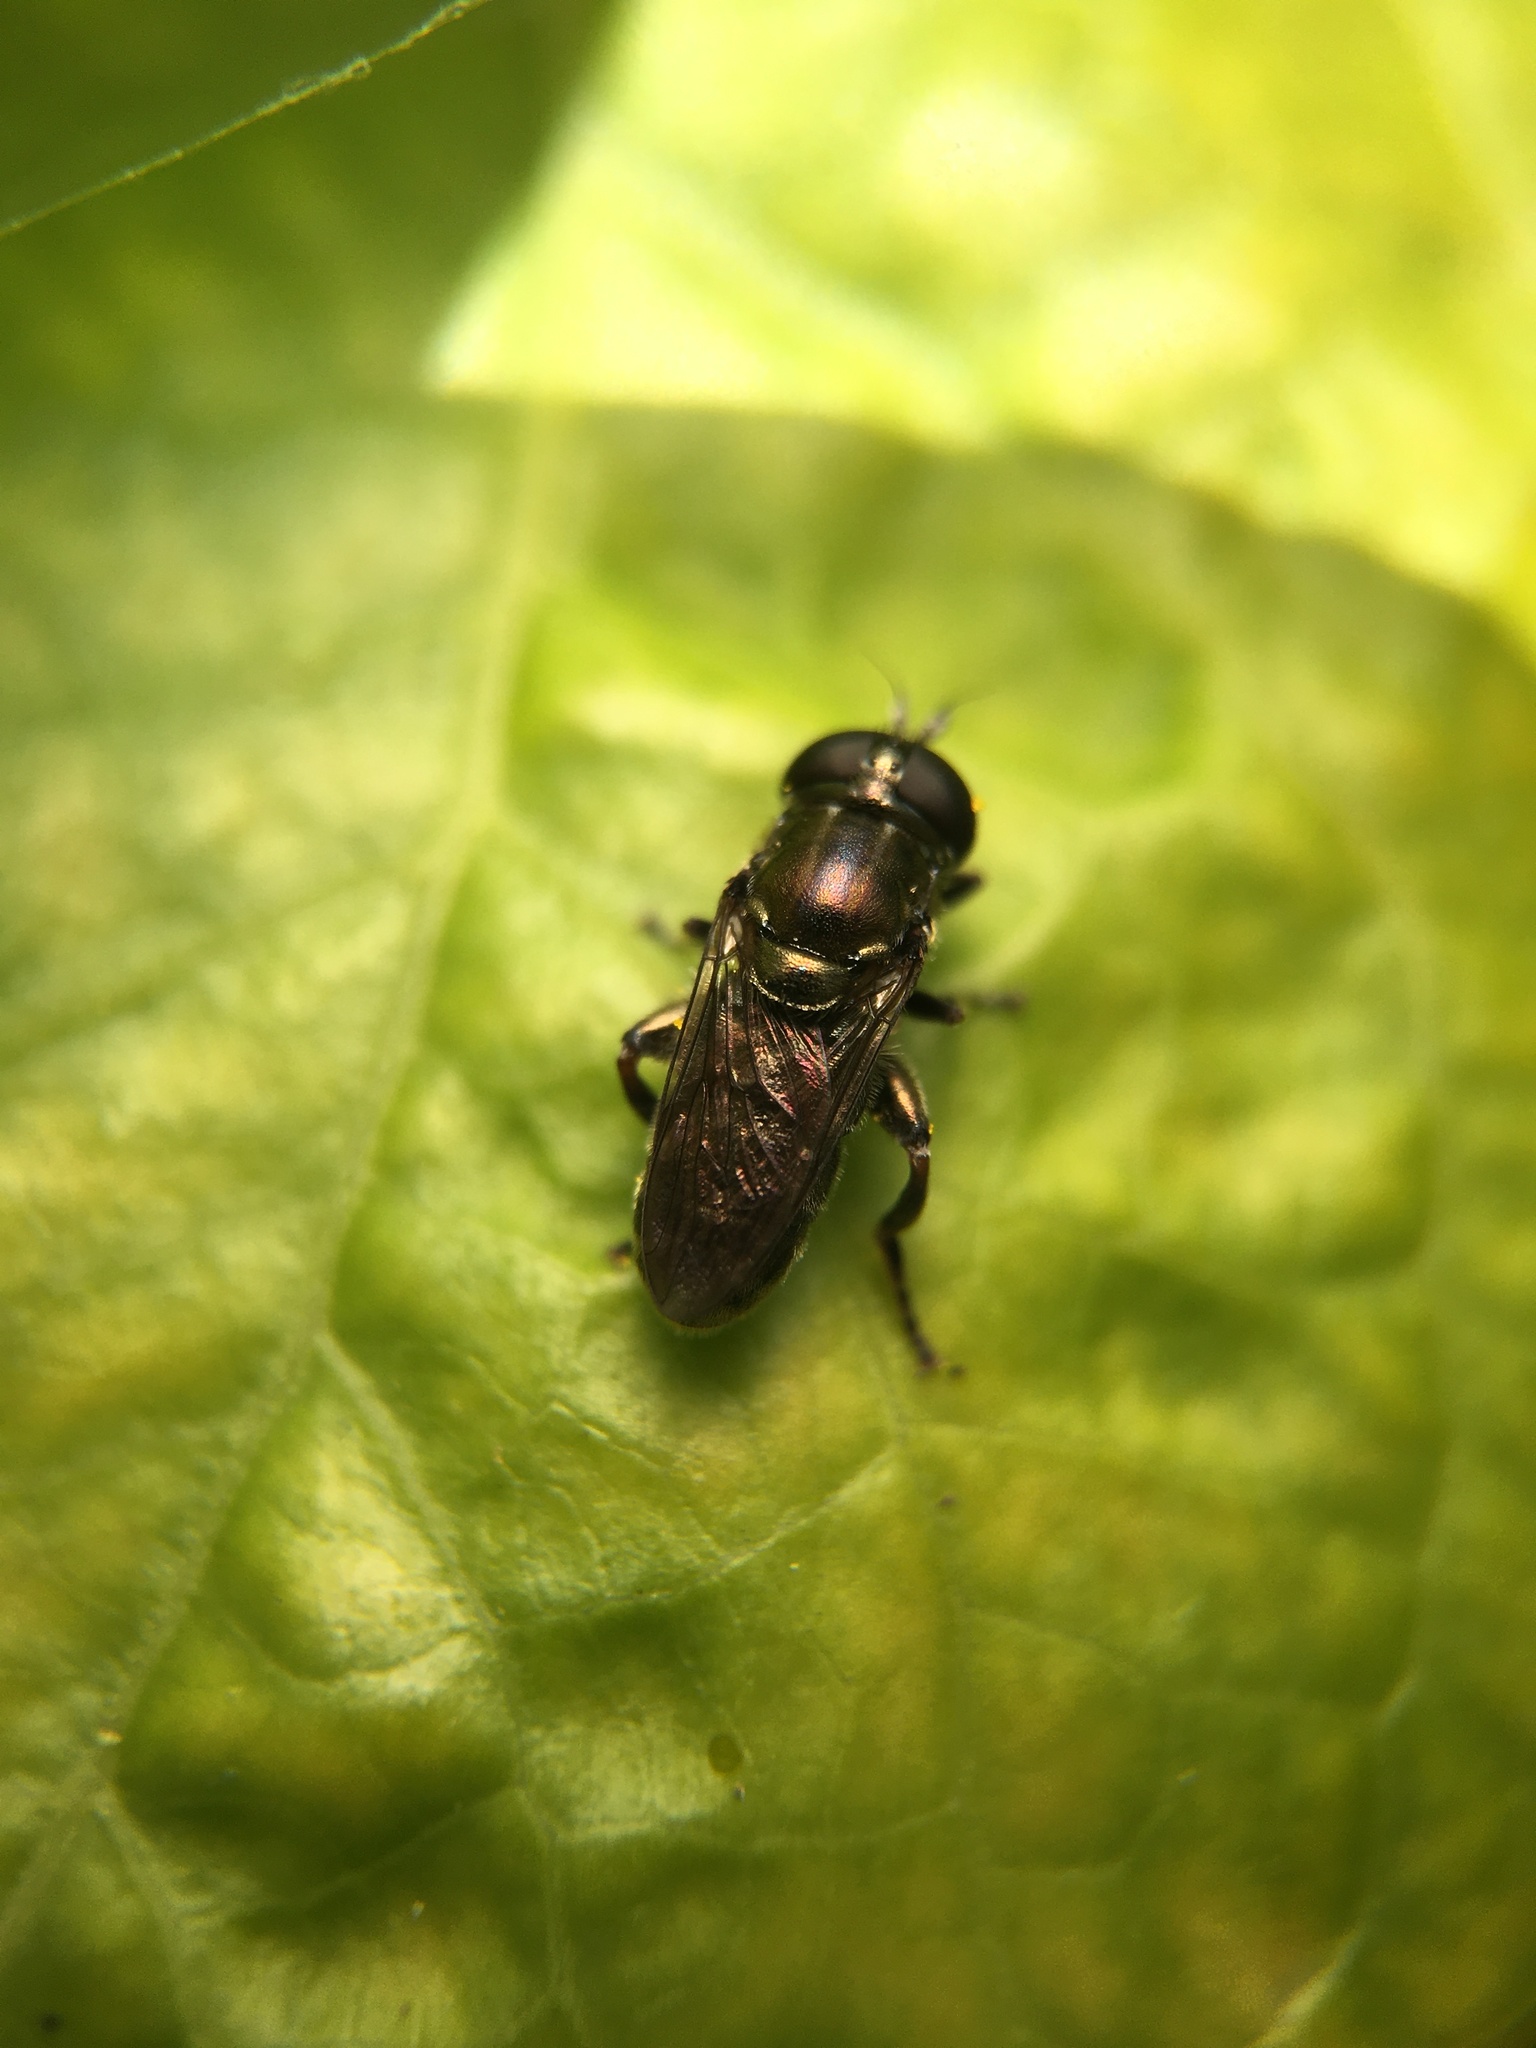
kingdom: Animalia
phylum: Arthropoda
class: Insecta
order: Diptera
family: Syrphidae
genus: Eumerus
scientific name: Eumerus
